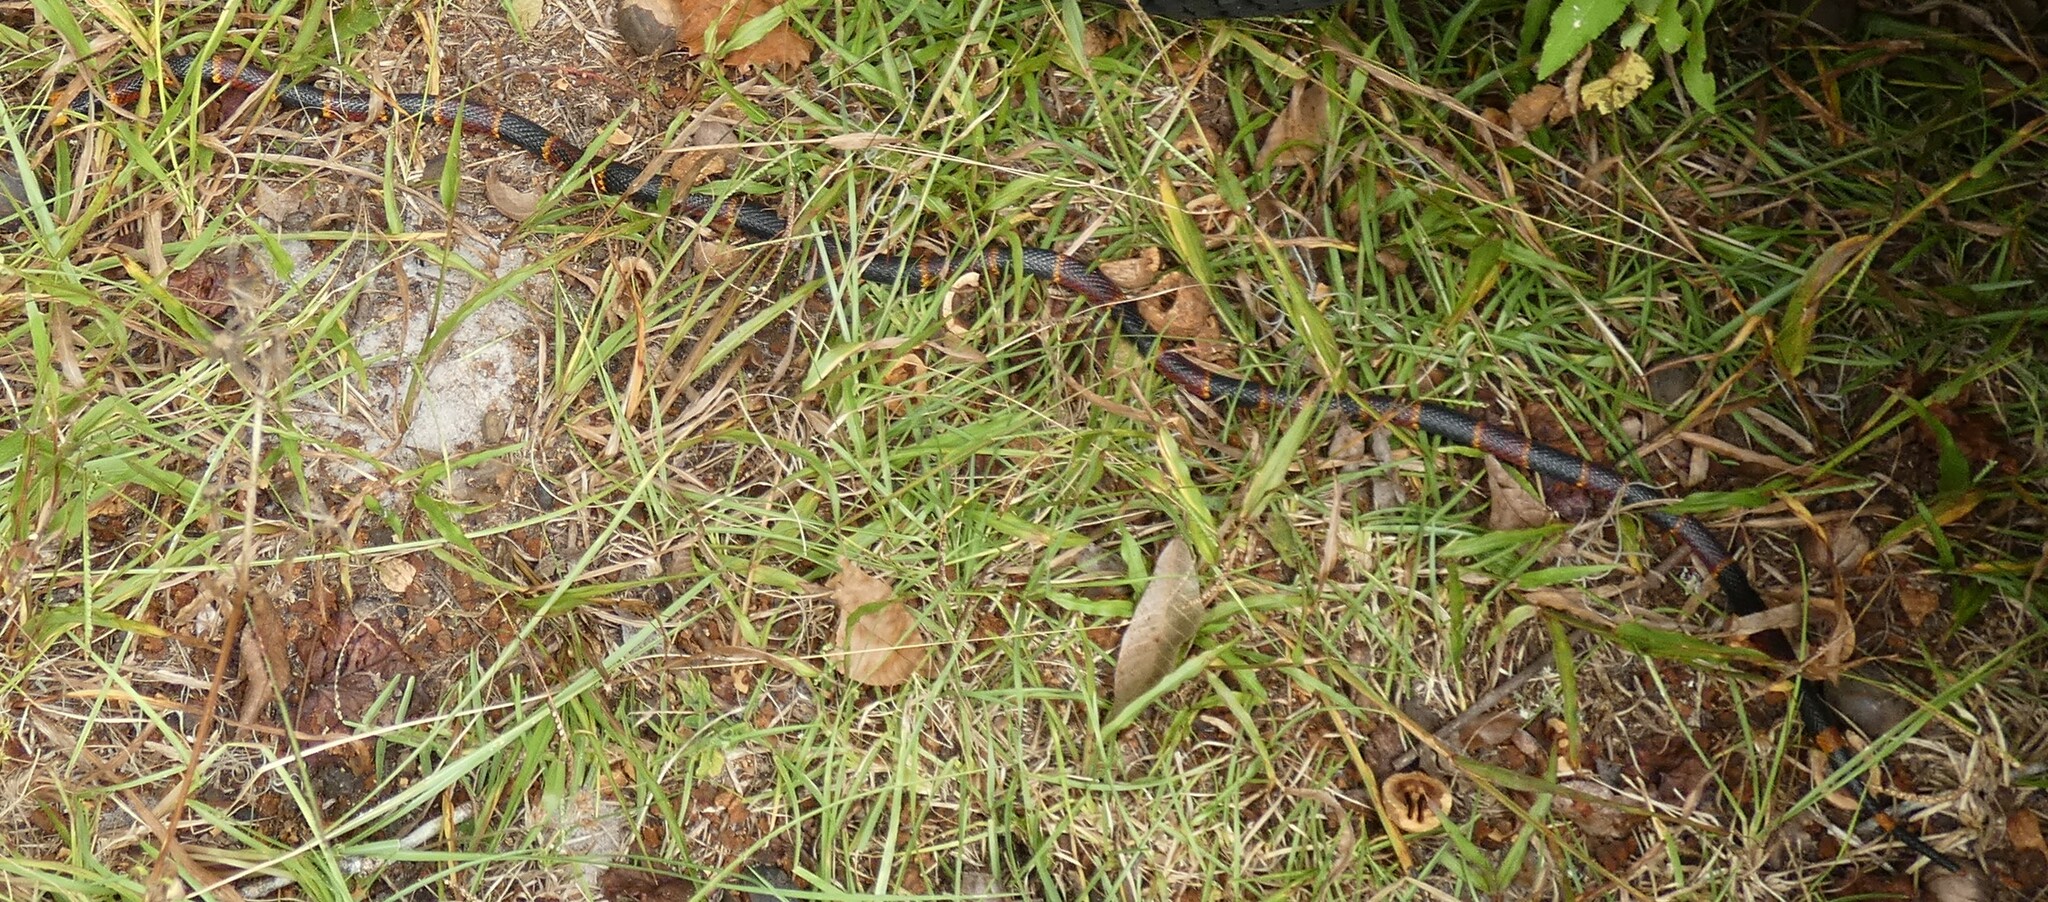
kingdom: Animalia
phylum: Chordata
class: Squamata
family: Elapidae
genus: Micrurus
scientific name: Micrurus fulvius
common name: Eastern coral snake
